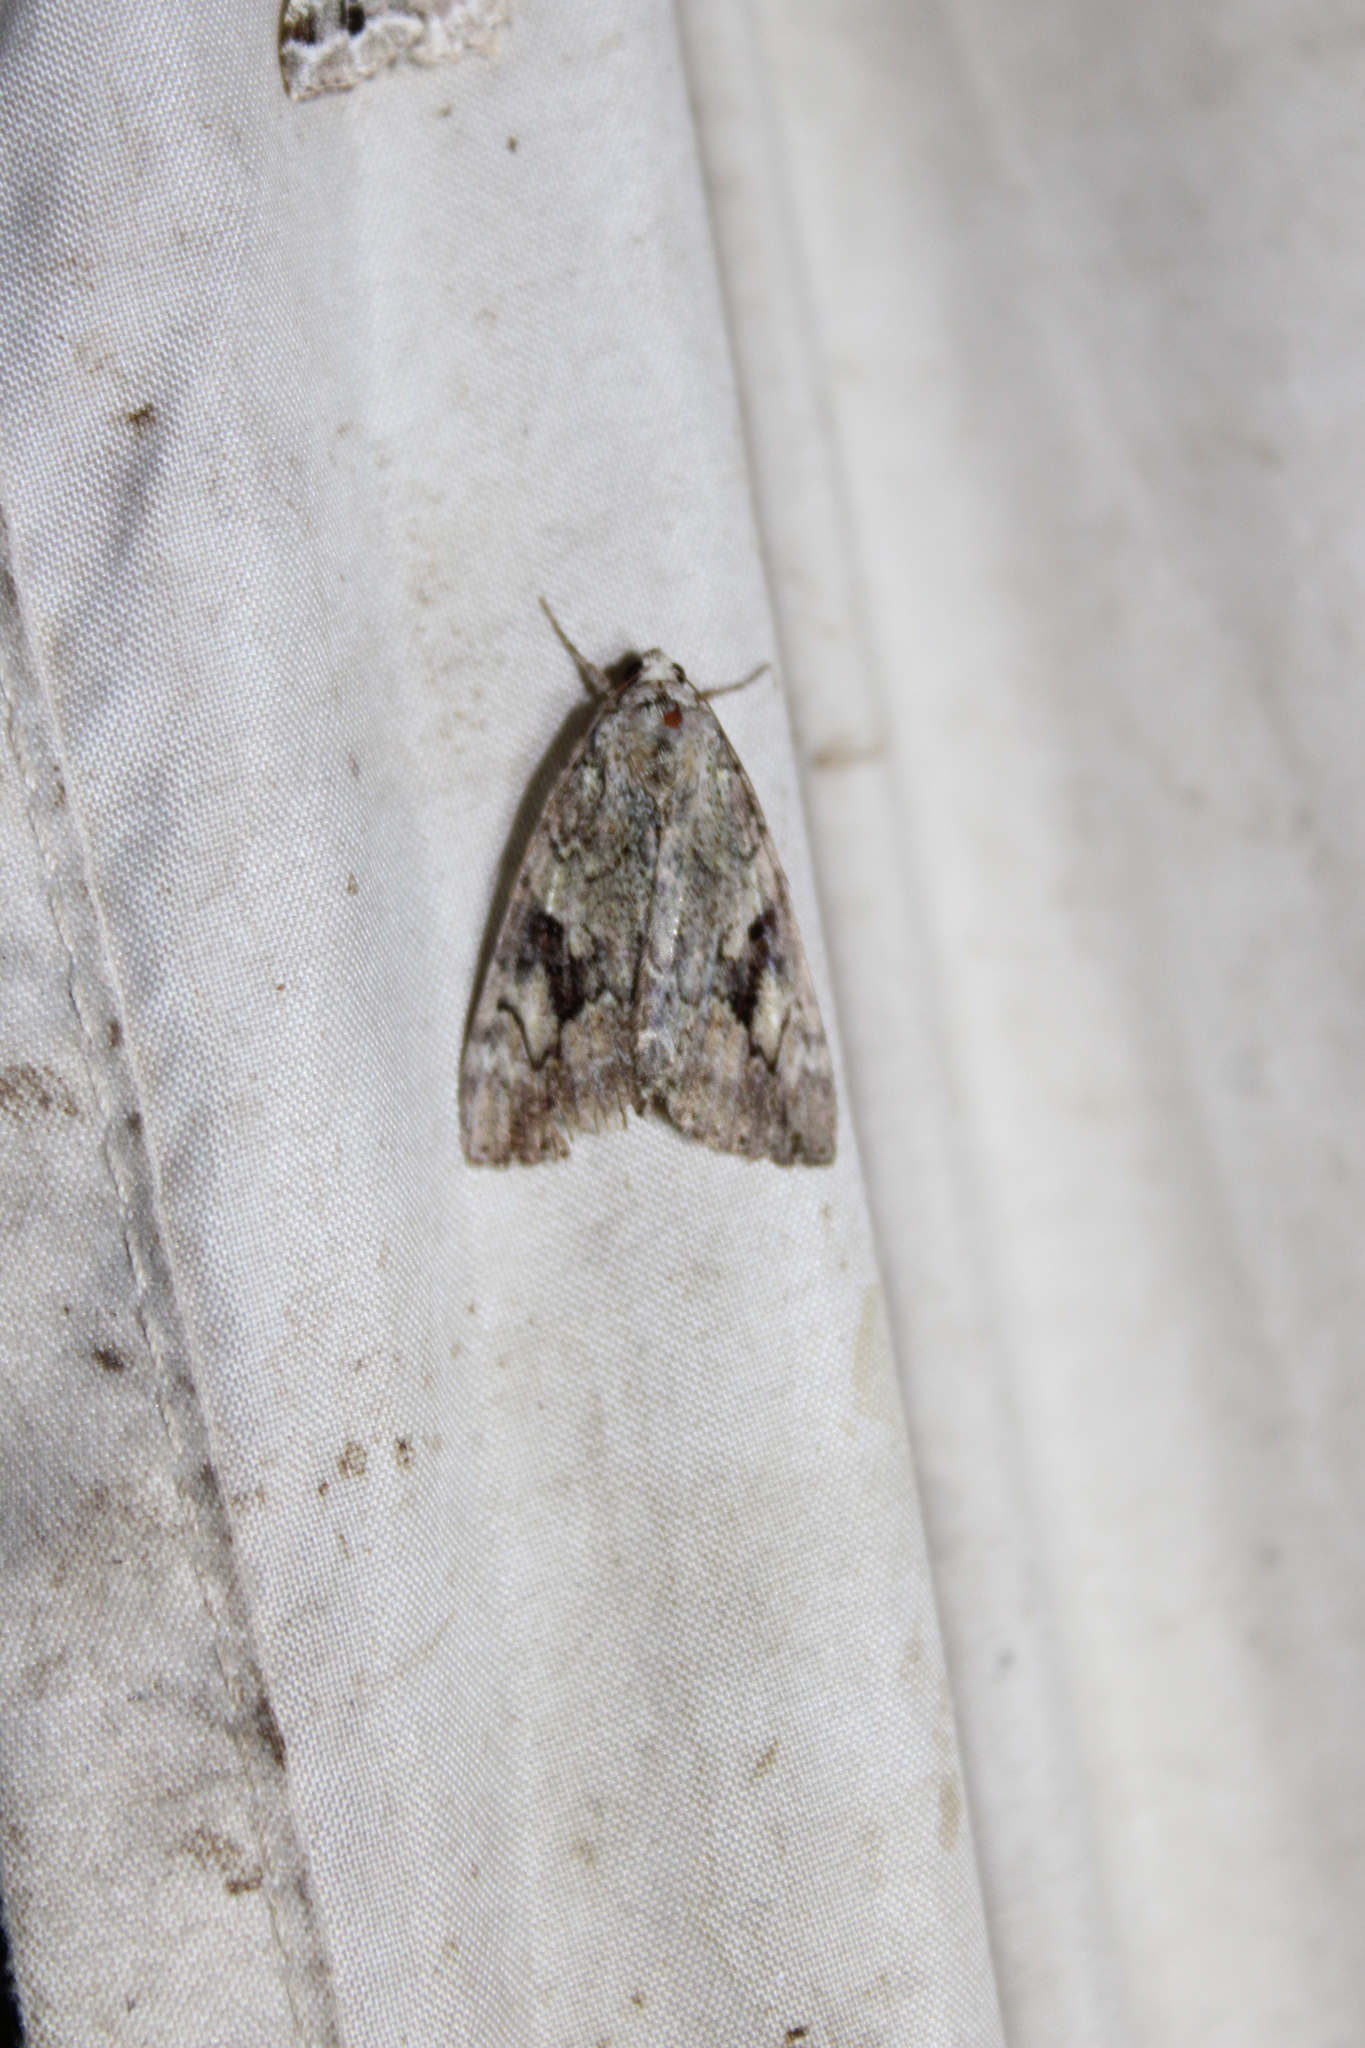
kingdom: Animalia
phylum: Arthropoda
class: Insecta
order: Lepidoptera
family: Erebidae
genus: Catocala
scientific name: Catocala micronympha
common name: Little nymph underwing
